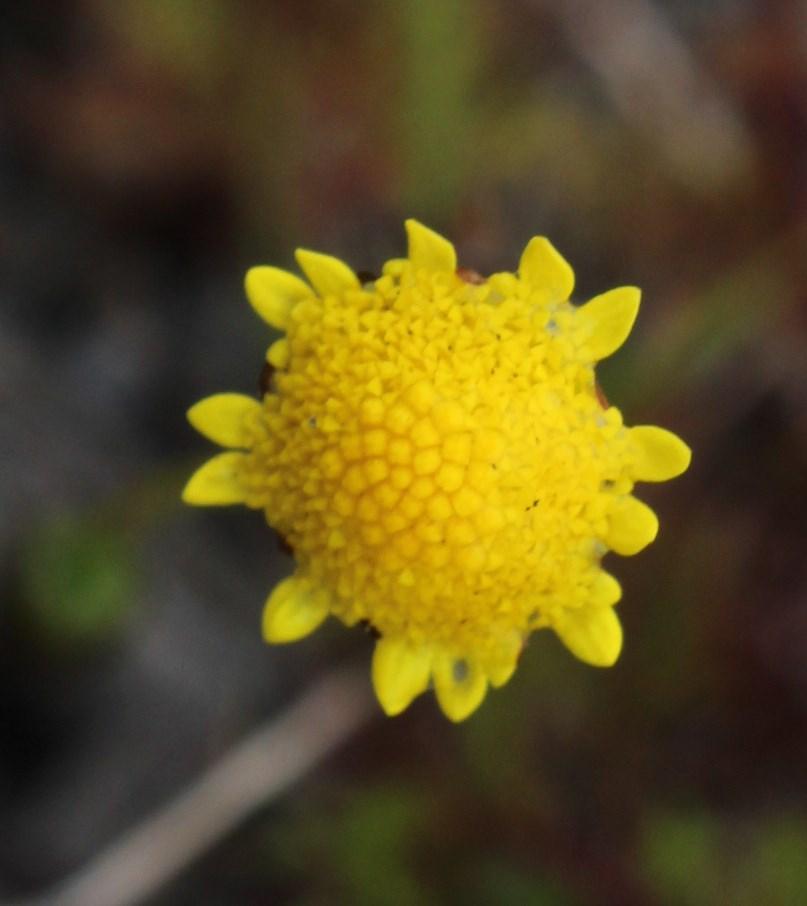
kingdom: Plantae
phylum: Tracheophyta
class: Magnoliopsida
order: Asterales
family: Asteraceae
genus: Cotula
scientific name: Cotula pruinosa
